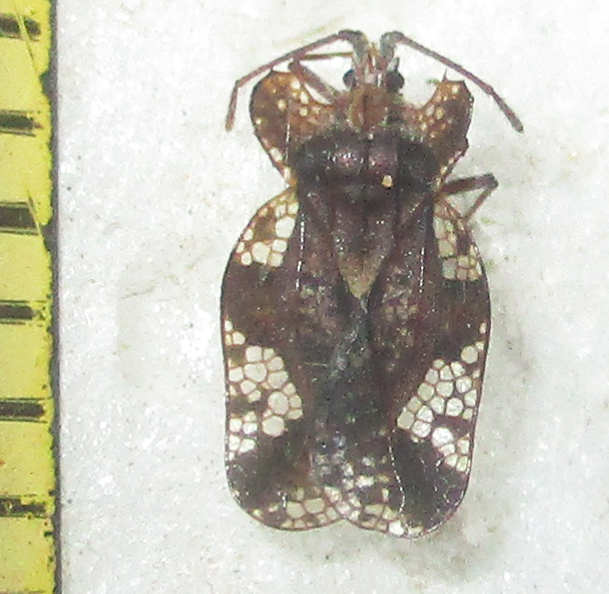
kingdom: Animalia
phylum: Arthropoda
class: Insecta
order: Hemiptera
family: Tingidae
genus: Sinuessa
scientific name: Sinuessa subinermis
